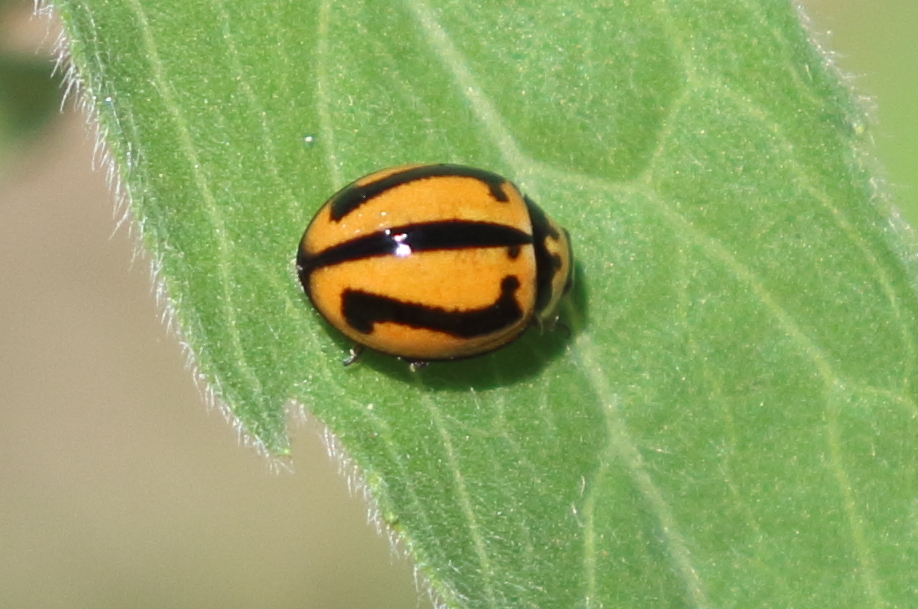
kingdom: Animalia
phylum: Arthropoda
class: Insecta
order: Coleoptera
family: Coccinellidae
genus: Micraspis
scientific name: Micraspis frenata
